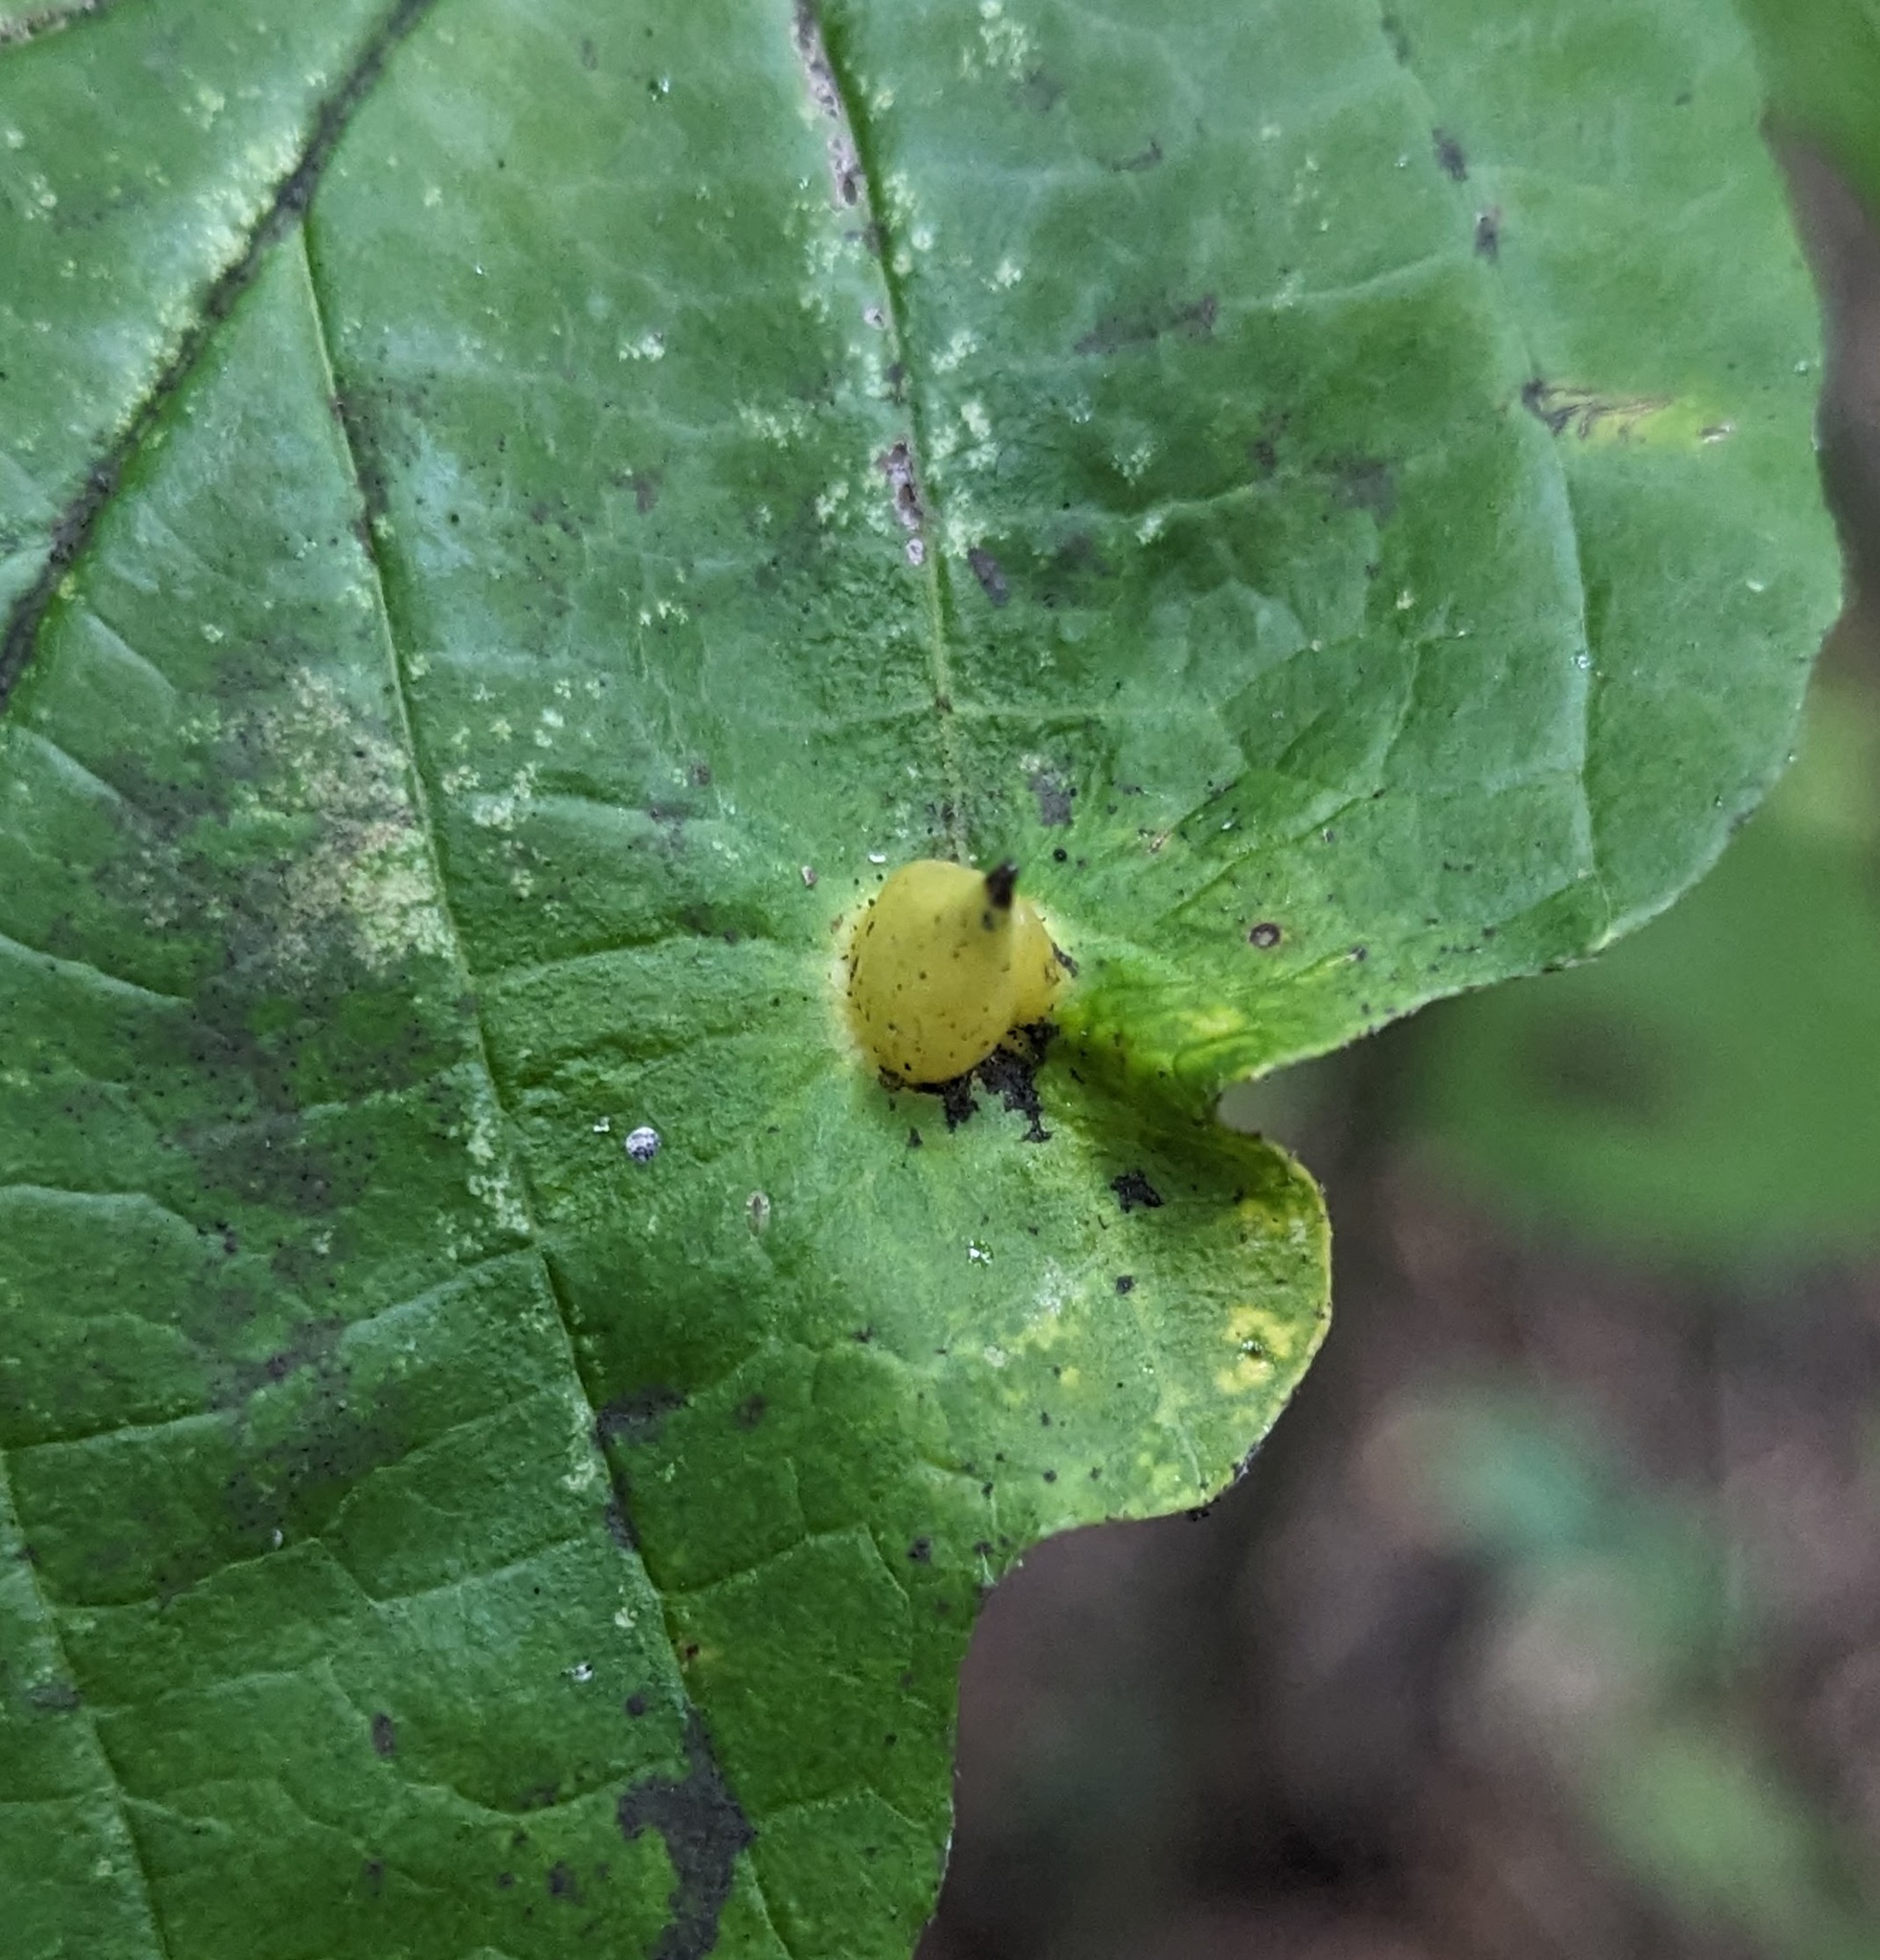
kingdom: Animalia
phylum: Arthropoda
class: Insecta
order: Hemiptera
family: Aphididae
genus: Hormaphis
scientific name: Hormaphis hamamelidis
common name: Witch-hazel cone gall aphid
